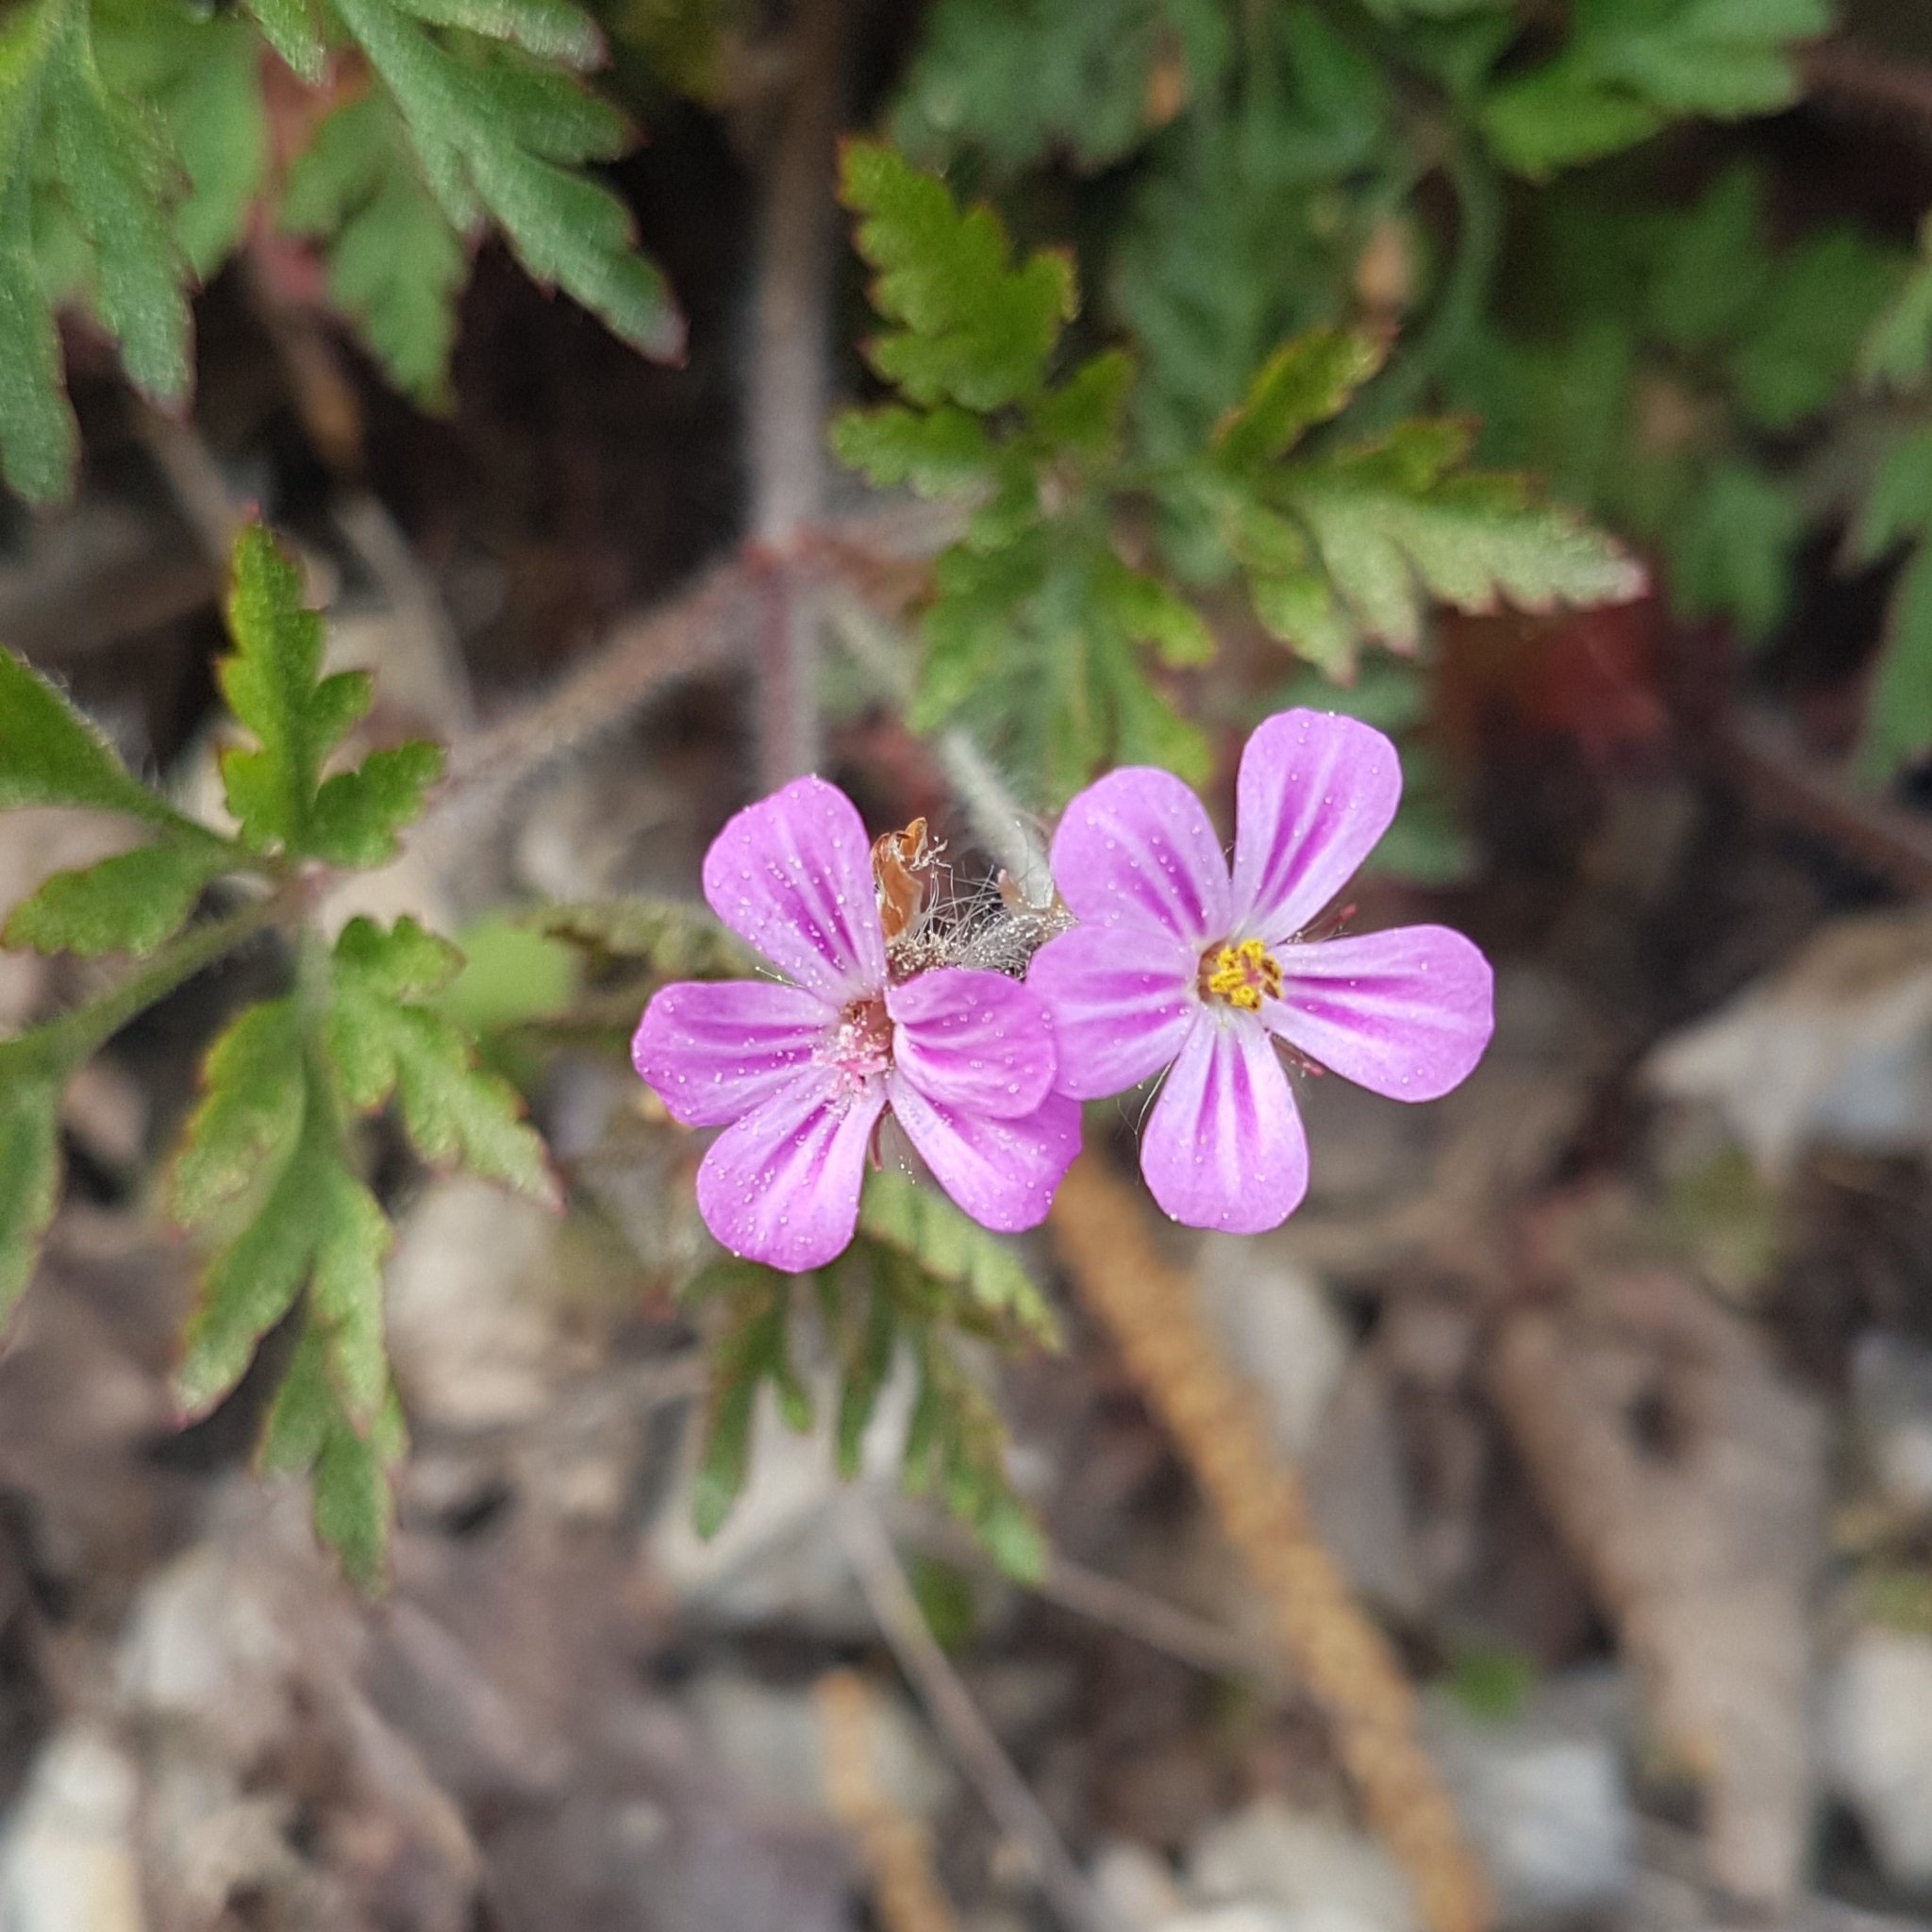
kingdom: Plantae
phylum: Tracheophyta
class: Magnoliopsida
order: Geraniales
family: Geraniaceae
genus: Geranium
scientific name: Geranium robertianum
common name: Herb-robert
